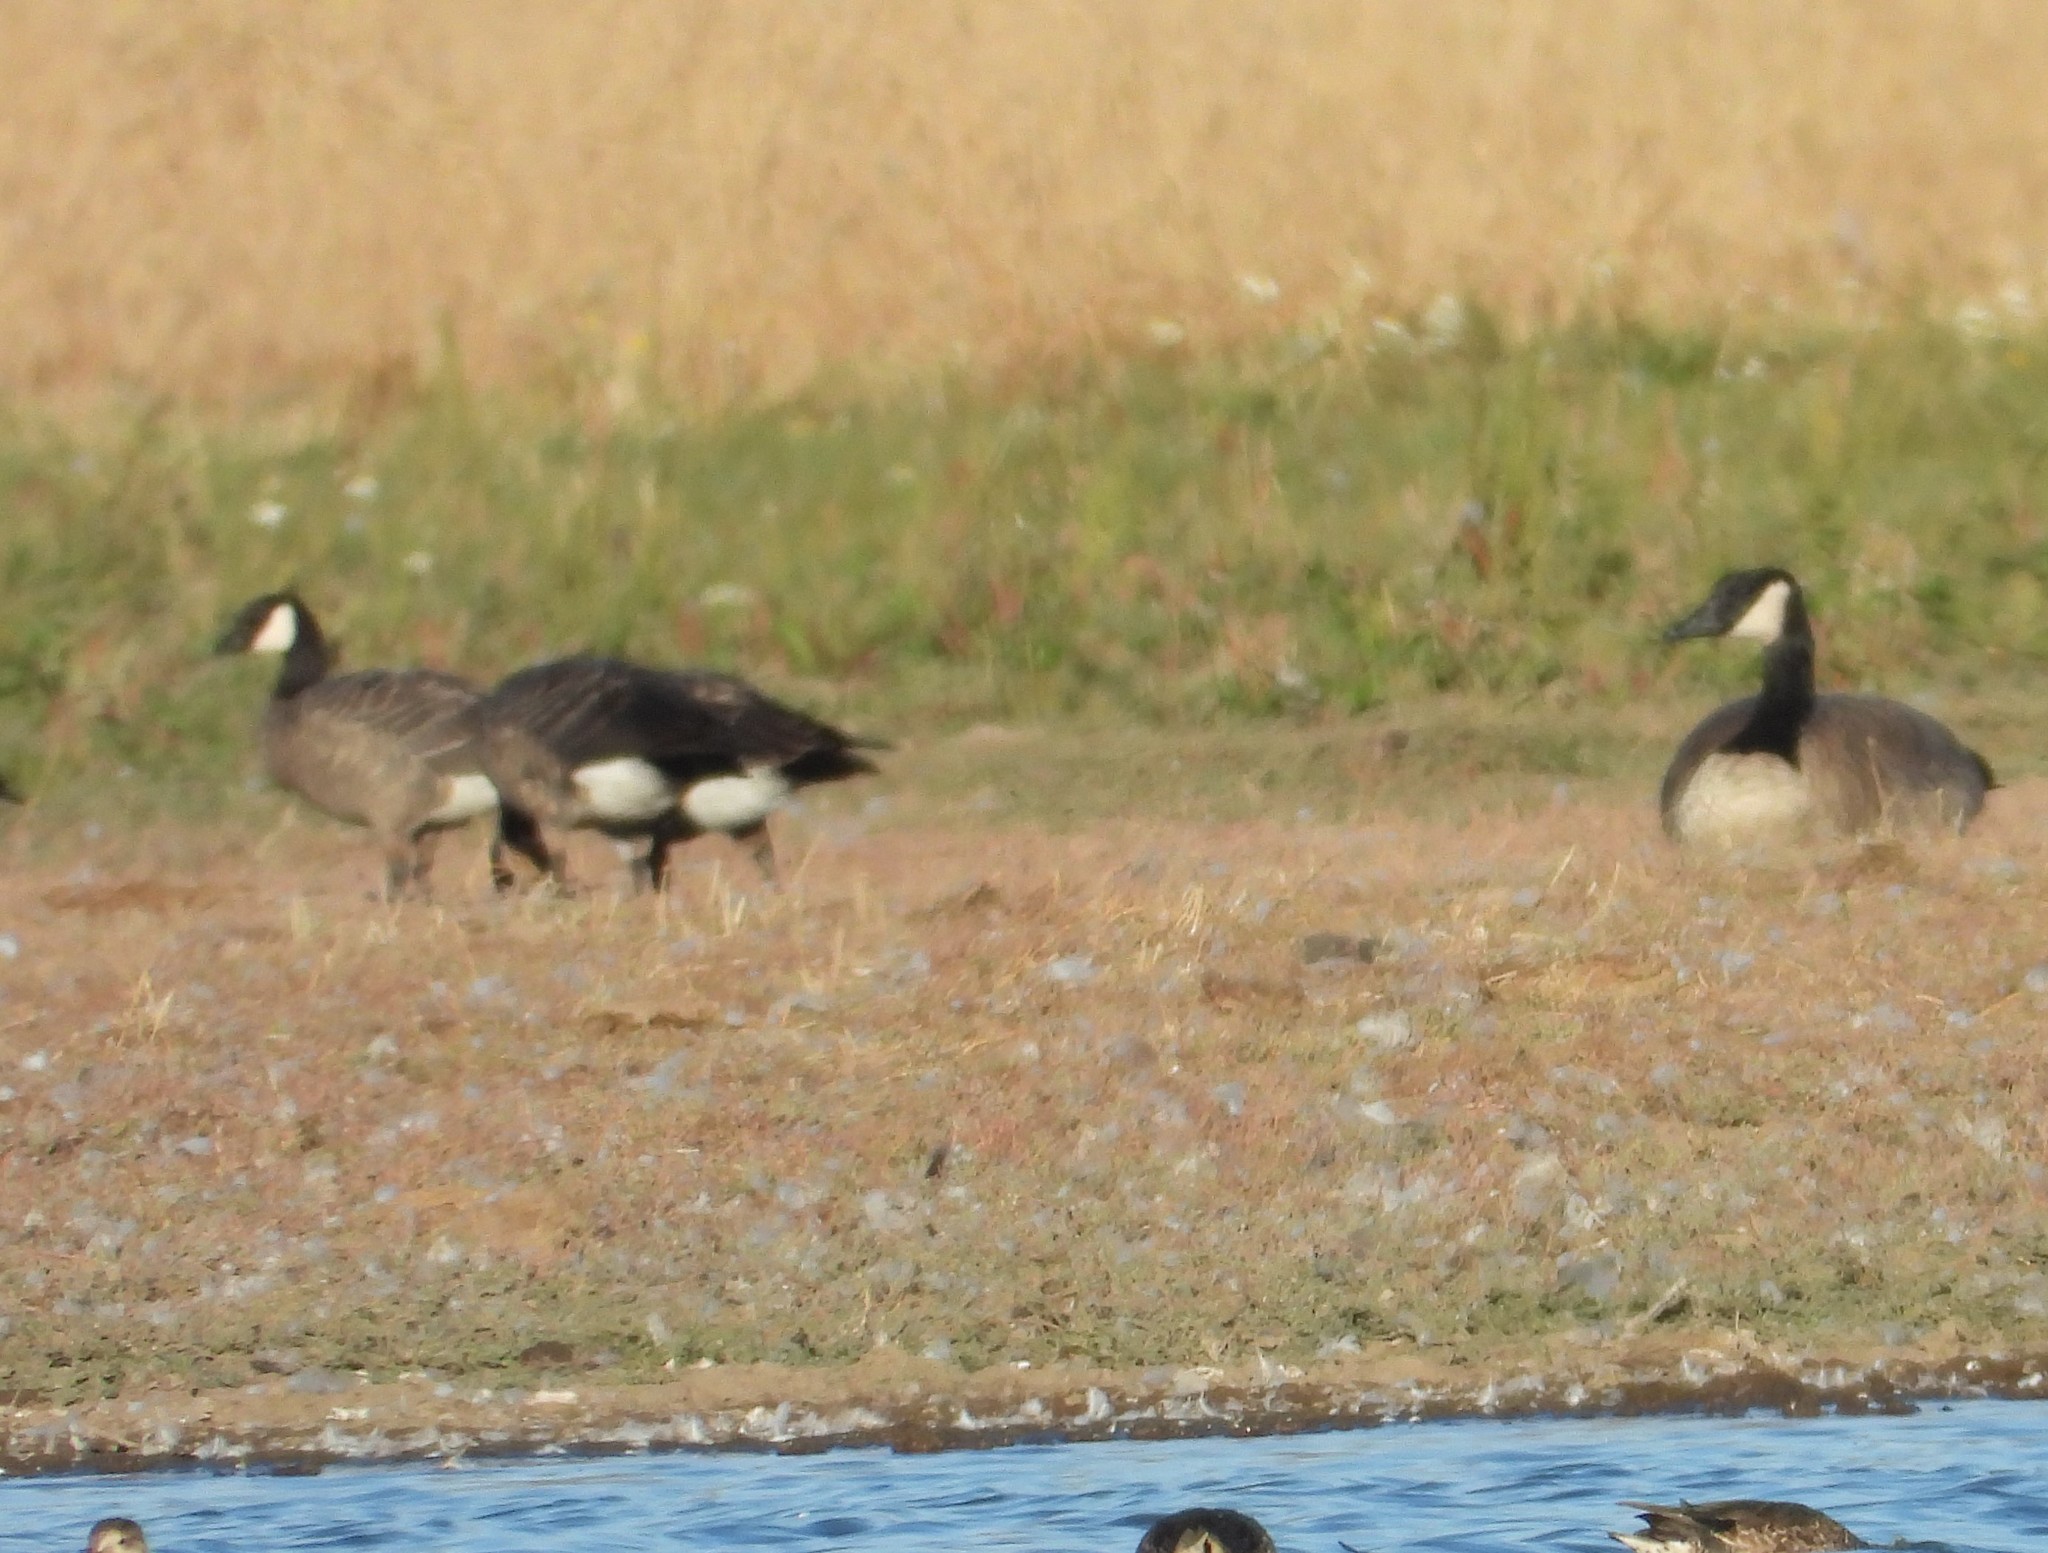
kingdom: Animalia
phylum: Chordata
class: Aves
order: Anseriformes
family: Anatidae
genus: Branta
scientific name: Branta hutchinsii
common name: Cackling goose
